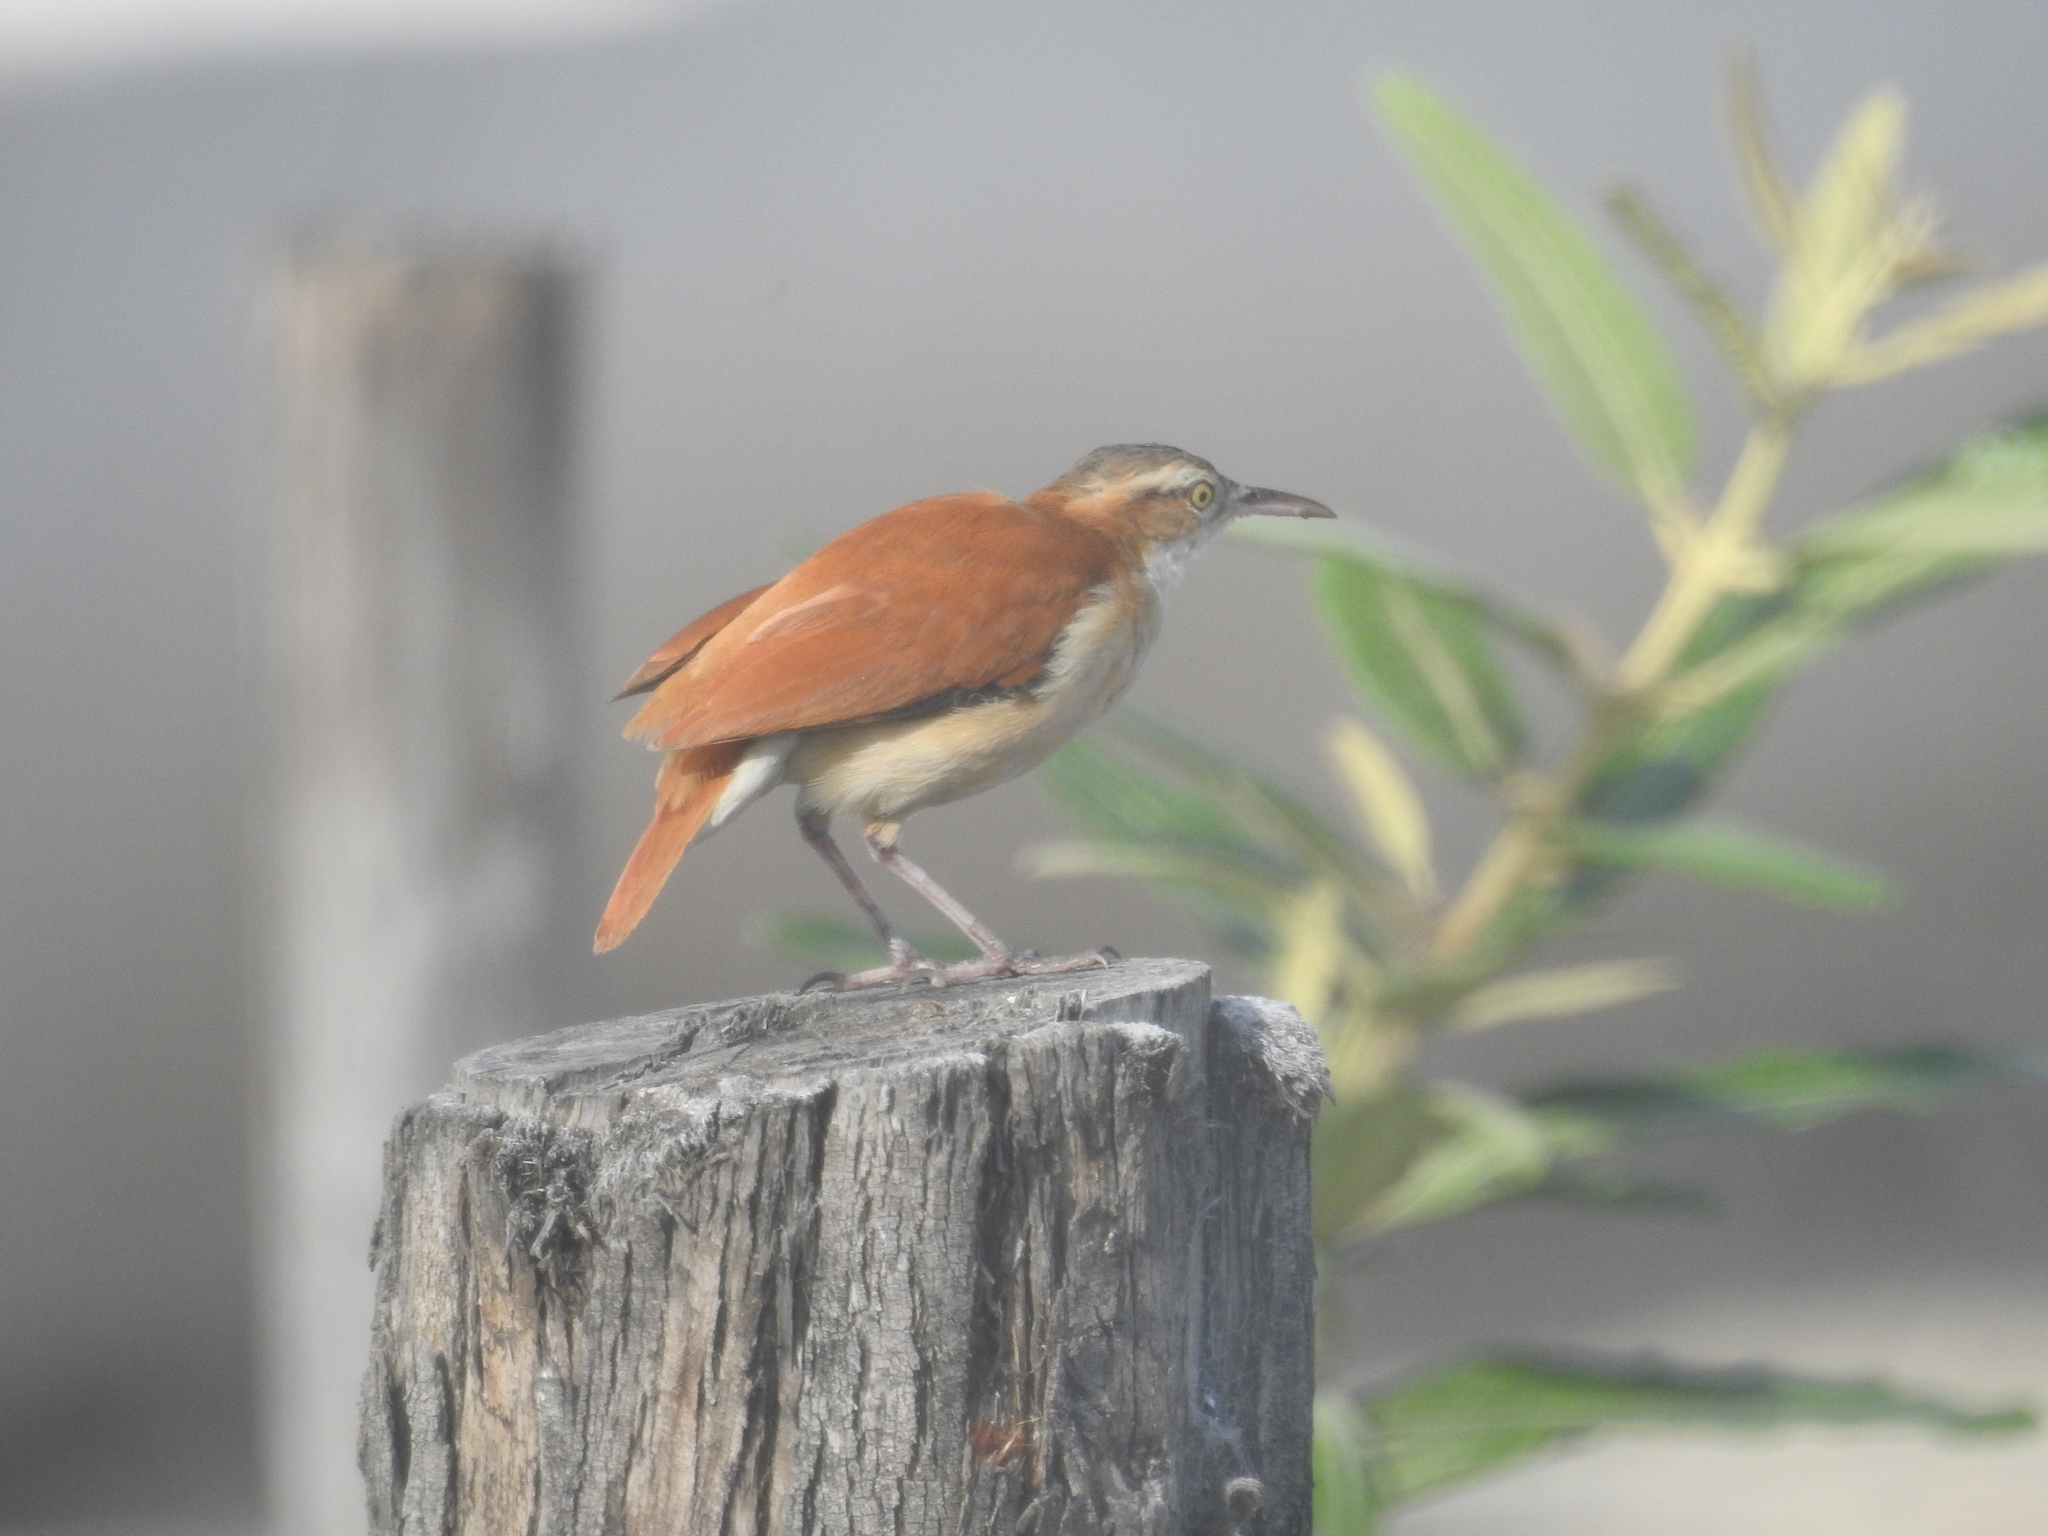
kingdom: Animalia
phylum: Chordata
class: Aves
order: Passeriformes
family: Furnariidae
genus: Furnarius
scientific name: Furnarius leucopus
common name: Pale-legged hornero
